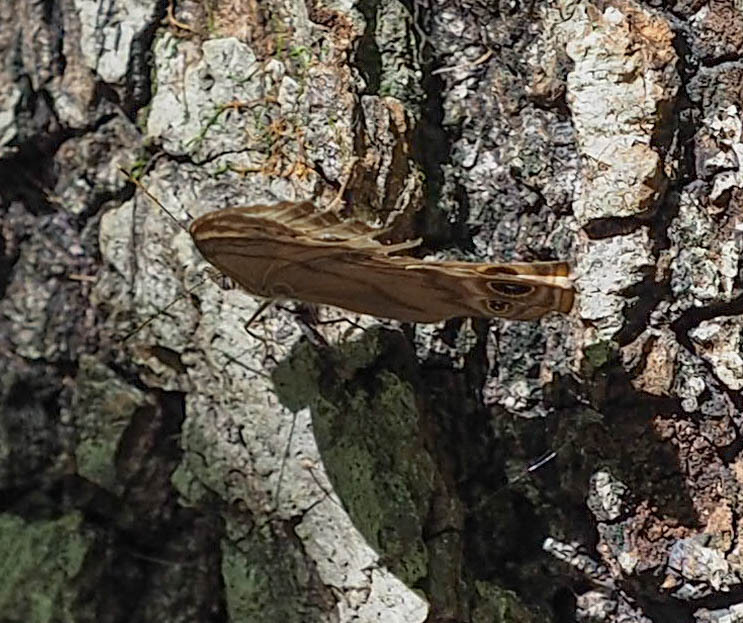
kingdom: Animalia
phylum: Arthropoda
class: Insecta
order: Lepidoptera
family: Nymphalidae
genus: Lethe
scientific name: Lethe anthedon
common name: Northern pearly-eye
